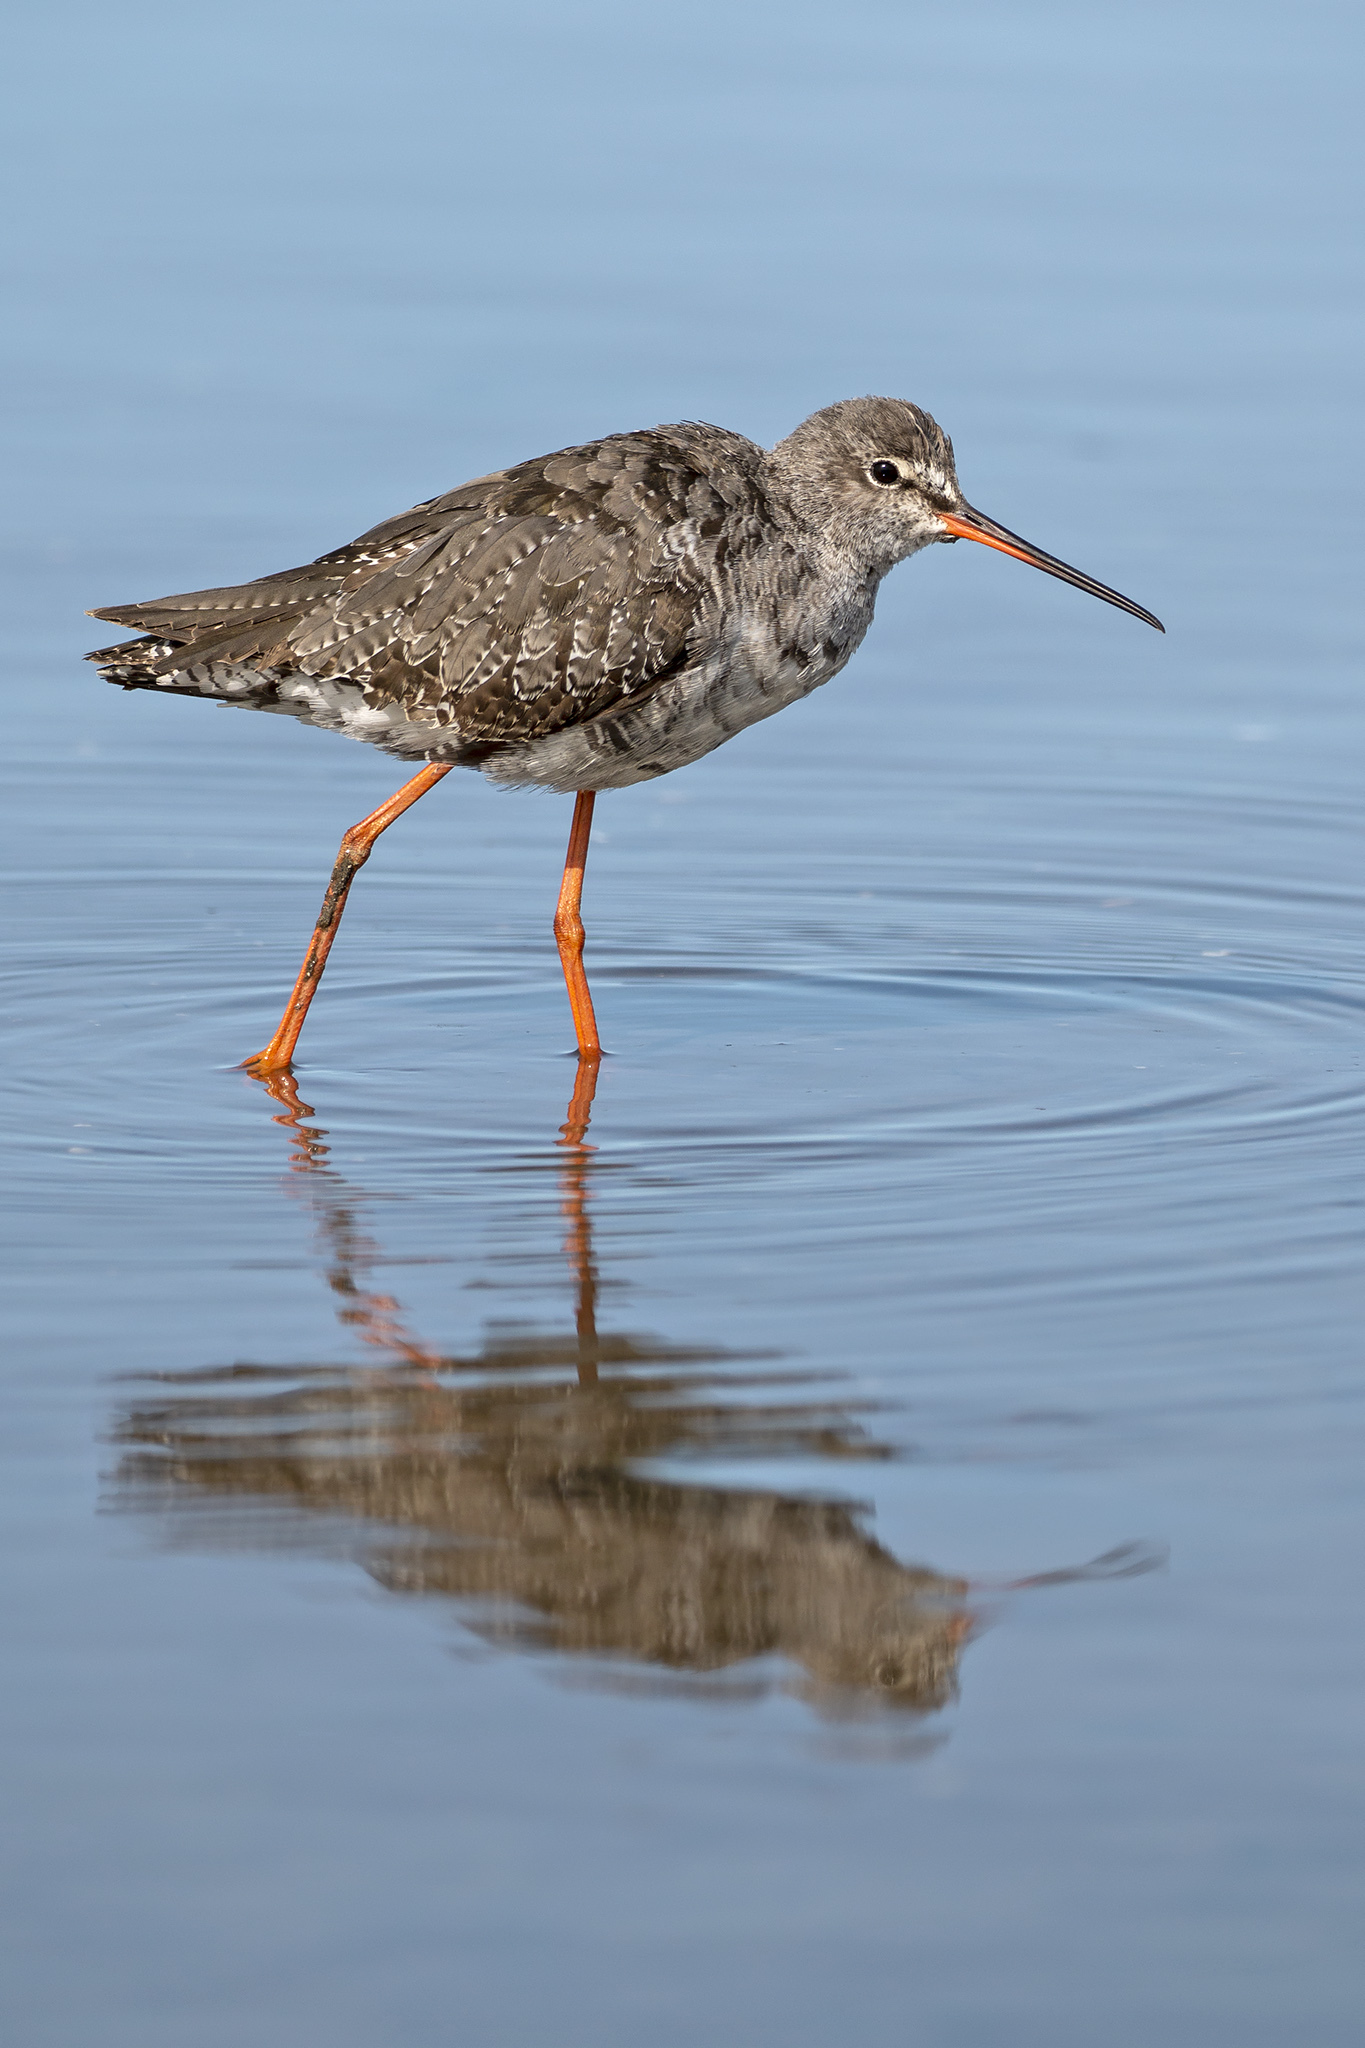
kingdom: Animalia
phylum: Chordata
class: Aves
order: Charadriiformes
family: Scolopacidae
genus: Tringa
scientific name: Tringa erythropus
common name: Spotted redshank
